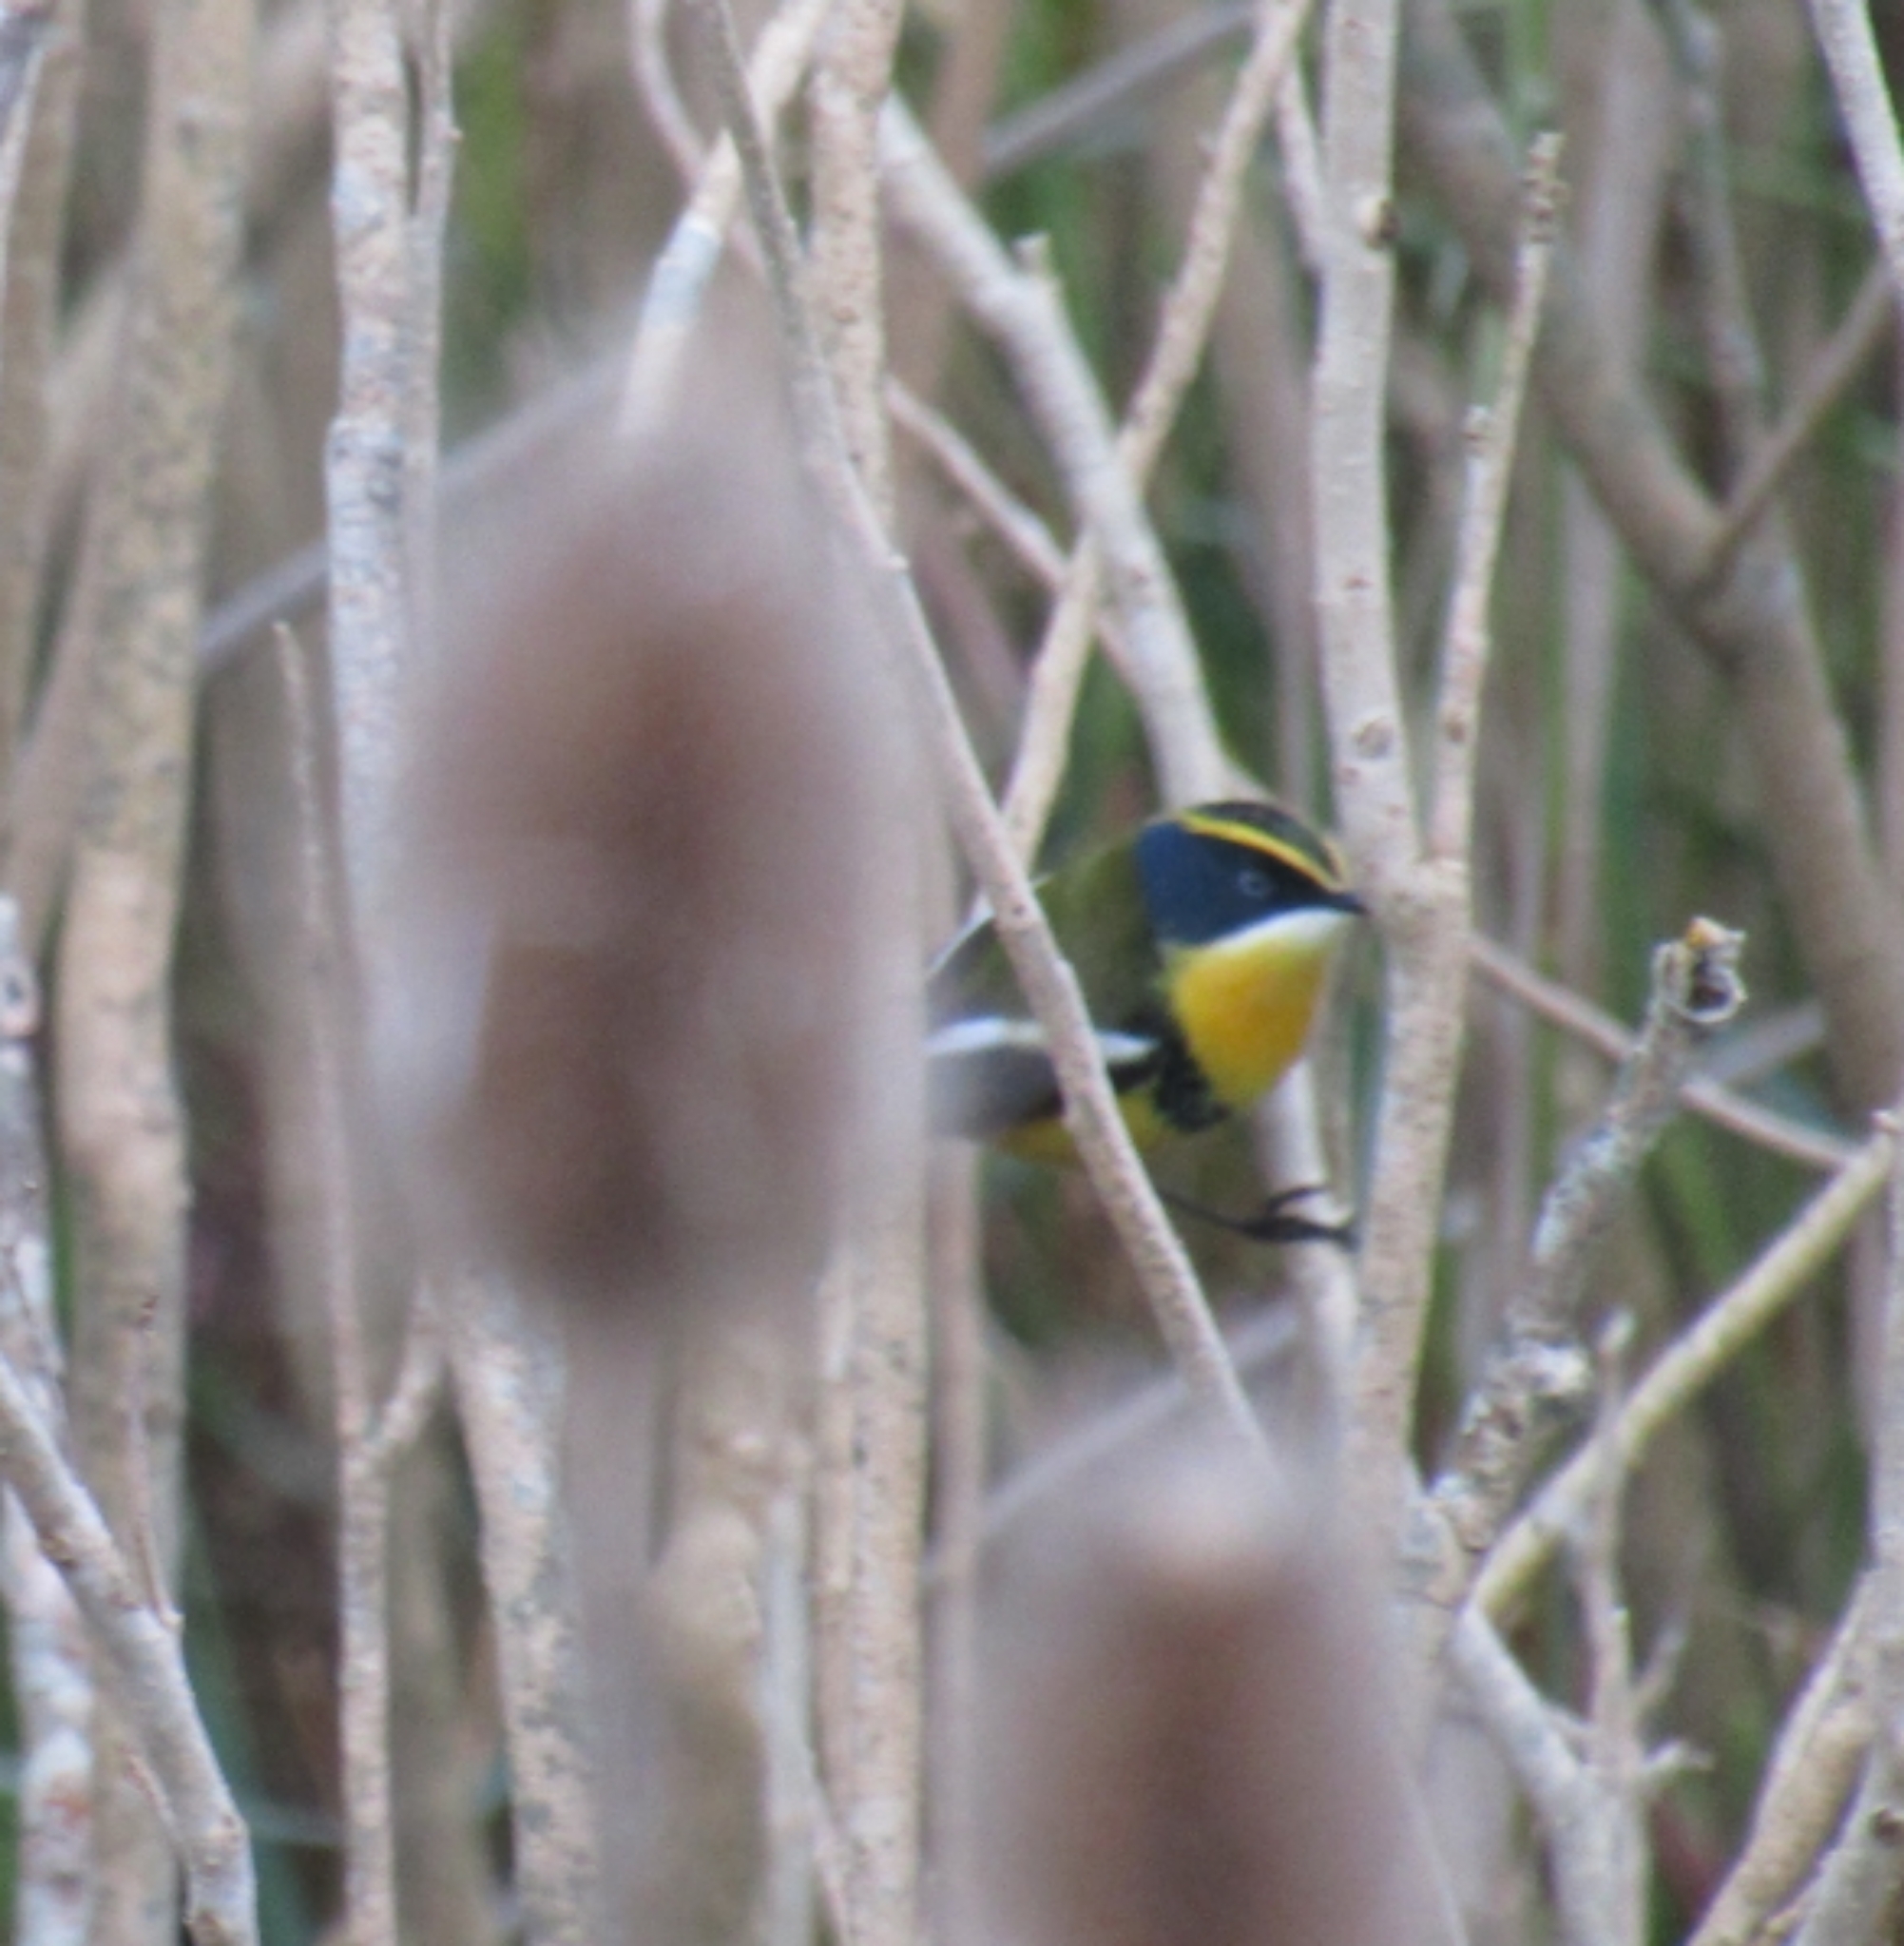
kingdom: Animalia
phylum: Chordata
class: Aves
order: Passeriformes
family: Tyrannidae
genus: Tachuris
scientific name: Tachuris rubrigastra
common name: Many-colored rush tyrant
